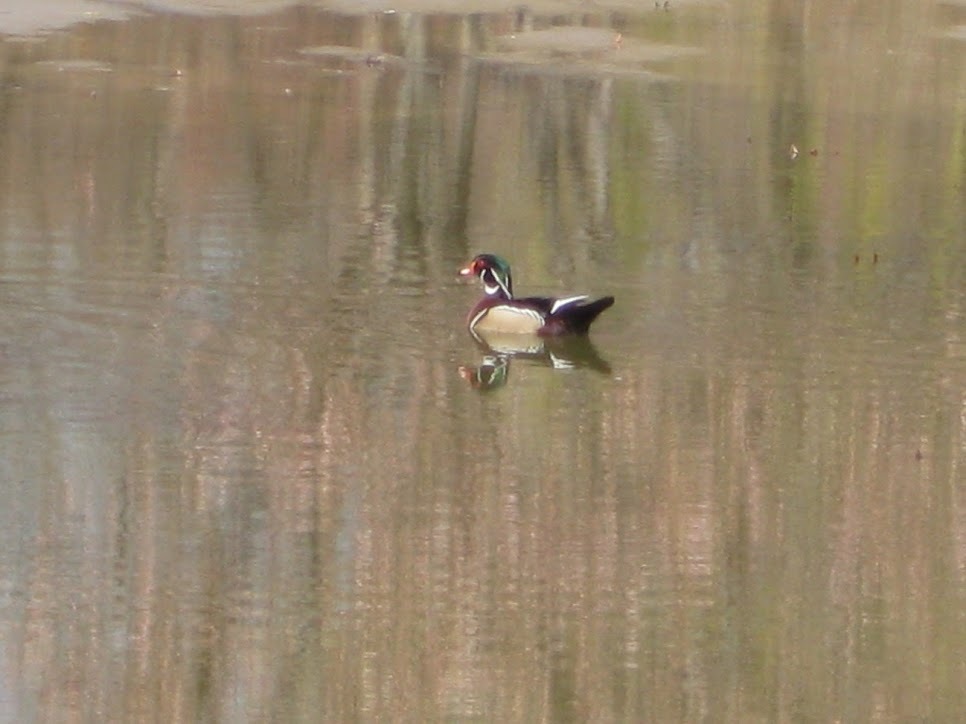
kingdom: Animalia
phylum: Chordata
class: Aves
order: Anseriformes
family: Anatidae
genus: Aix
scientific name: Aix sponsa
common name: Wood duck
